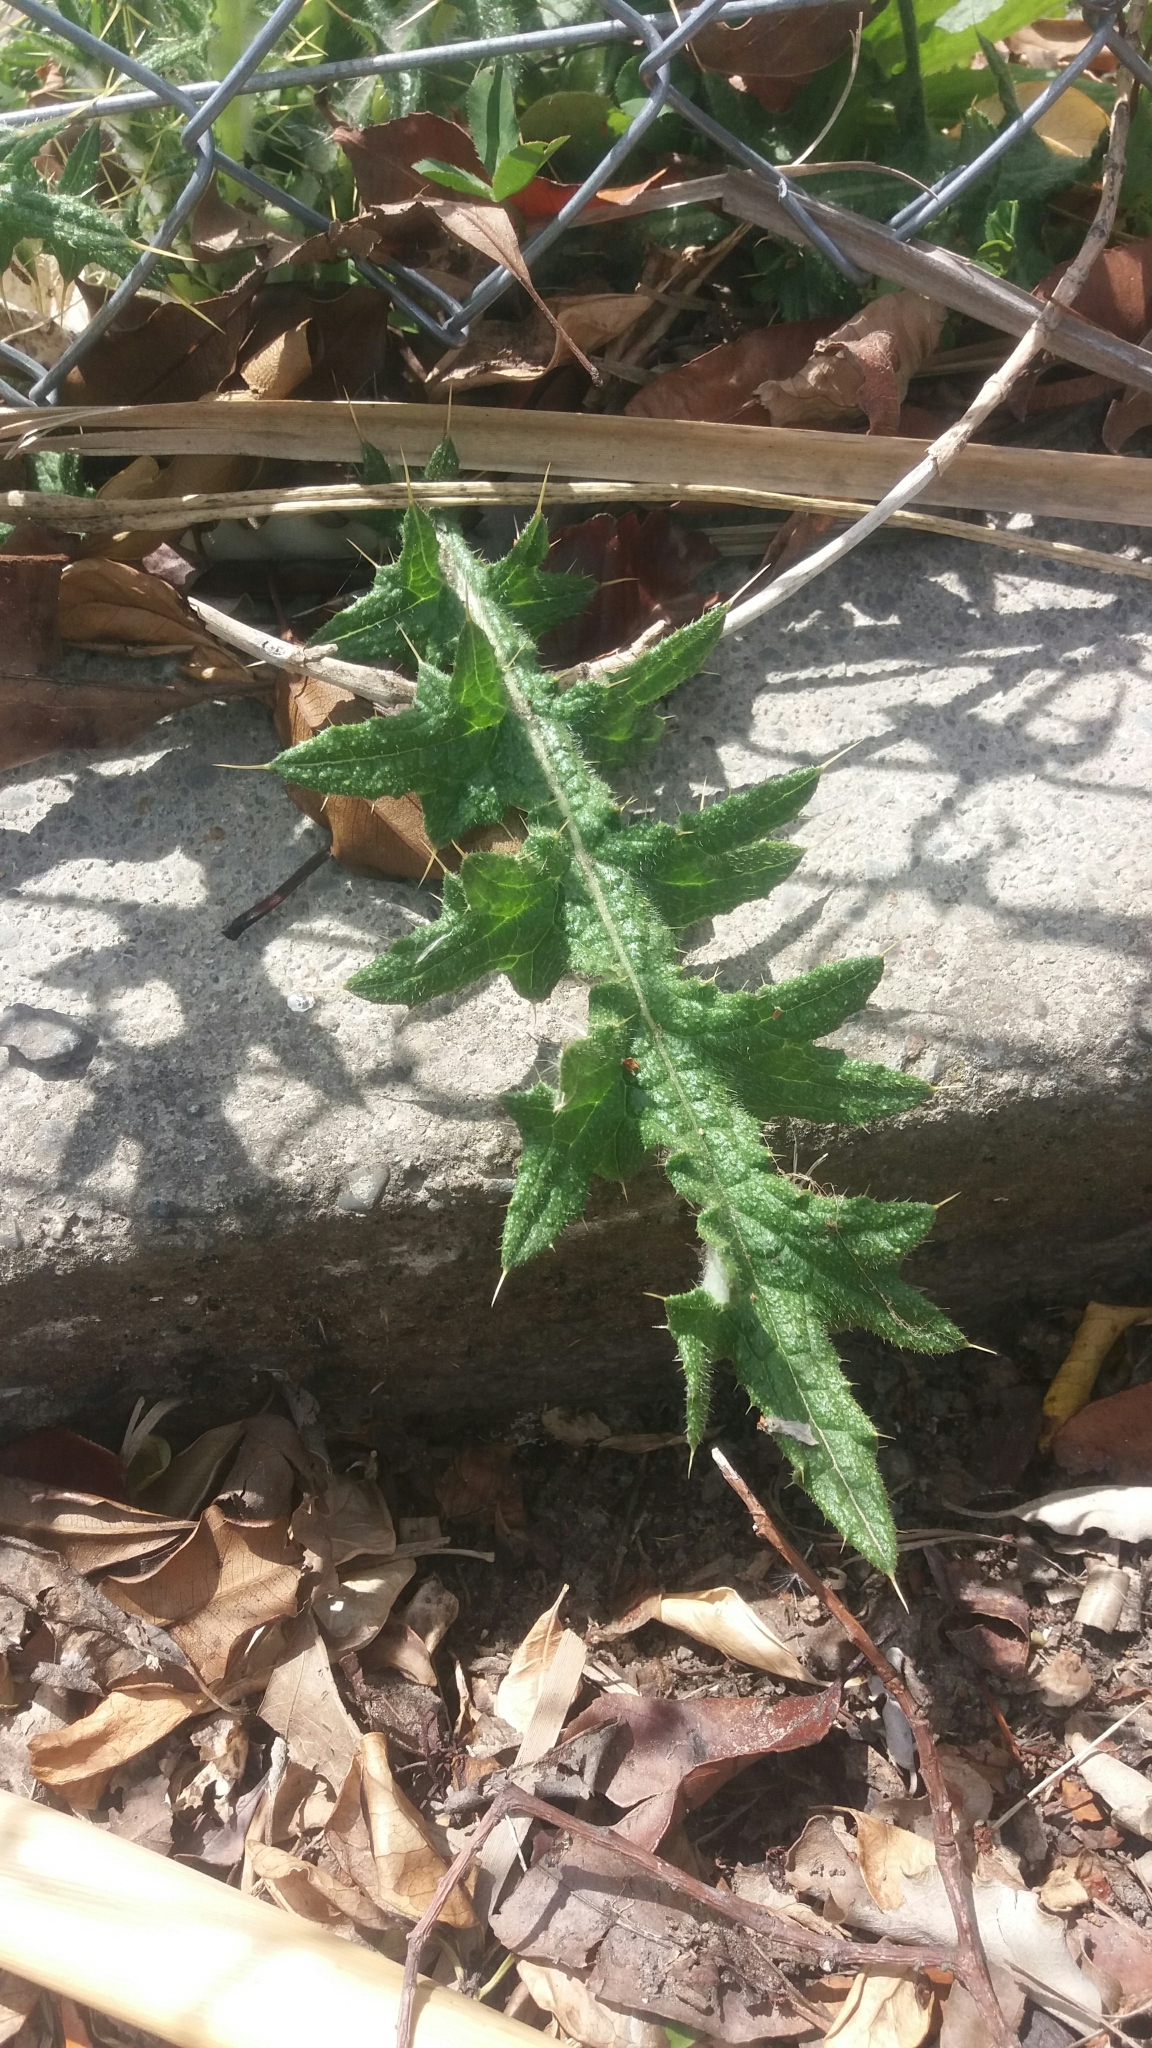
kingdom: Plantae
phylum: Tracheophyta
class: Magnoliopsida
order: Asterales
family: Asteraceae
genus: Cirsium
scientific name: Cirsium vulgare
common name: Bull thistle
